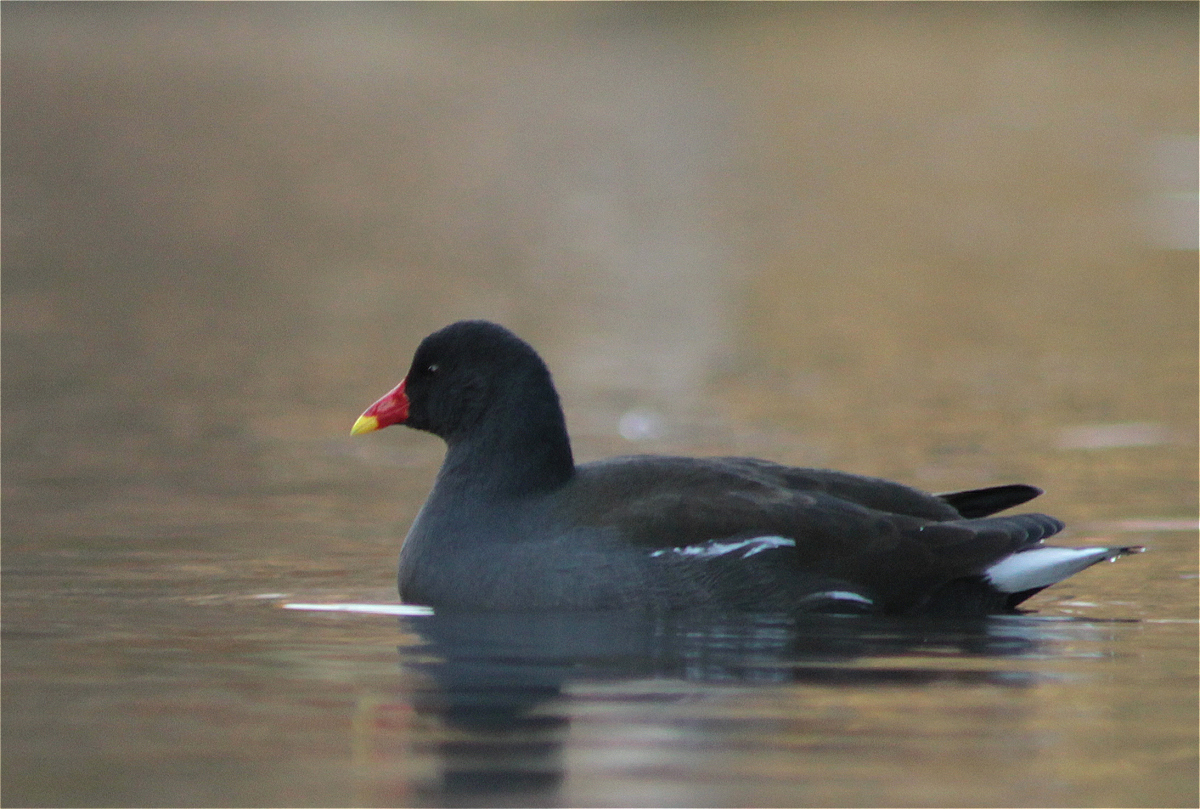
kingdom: Animalia
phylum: Chordata
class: Aves
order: Gruiformes
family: Rallidae
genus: Gallinula
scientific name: Gallinula chloropus
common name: Common moorhen
